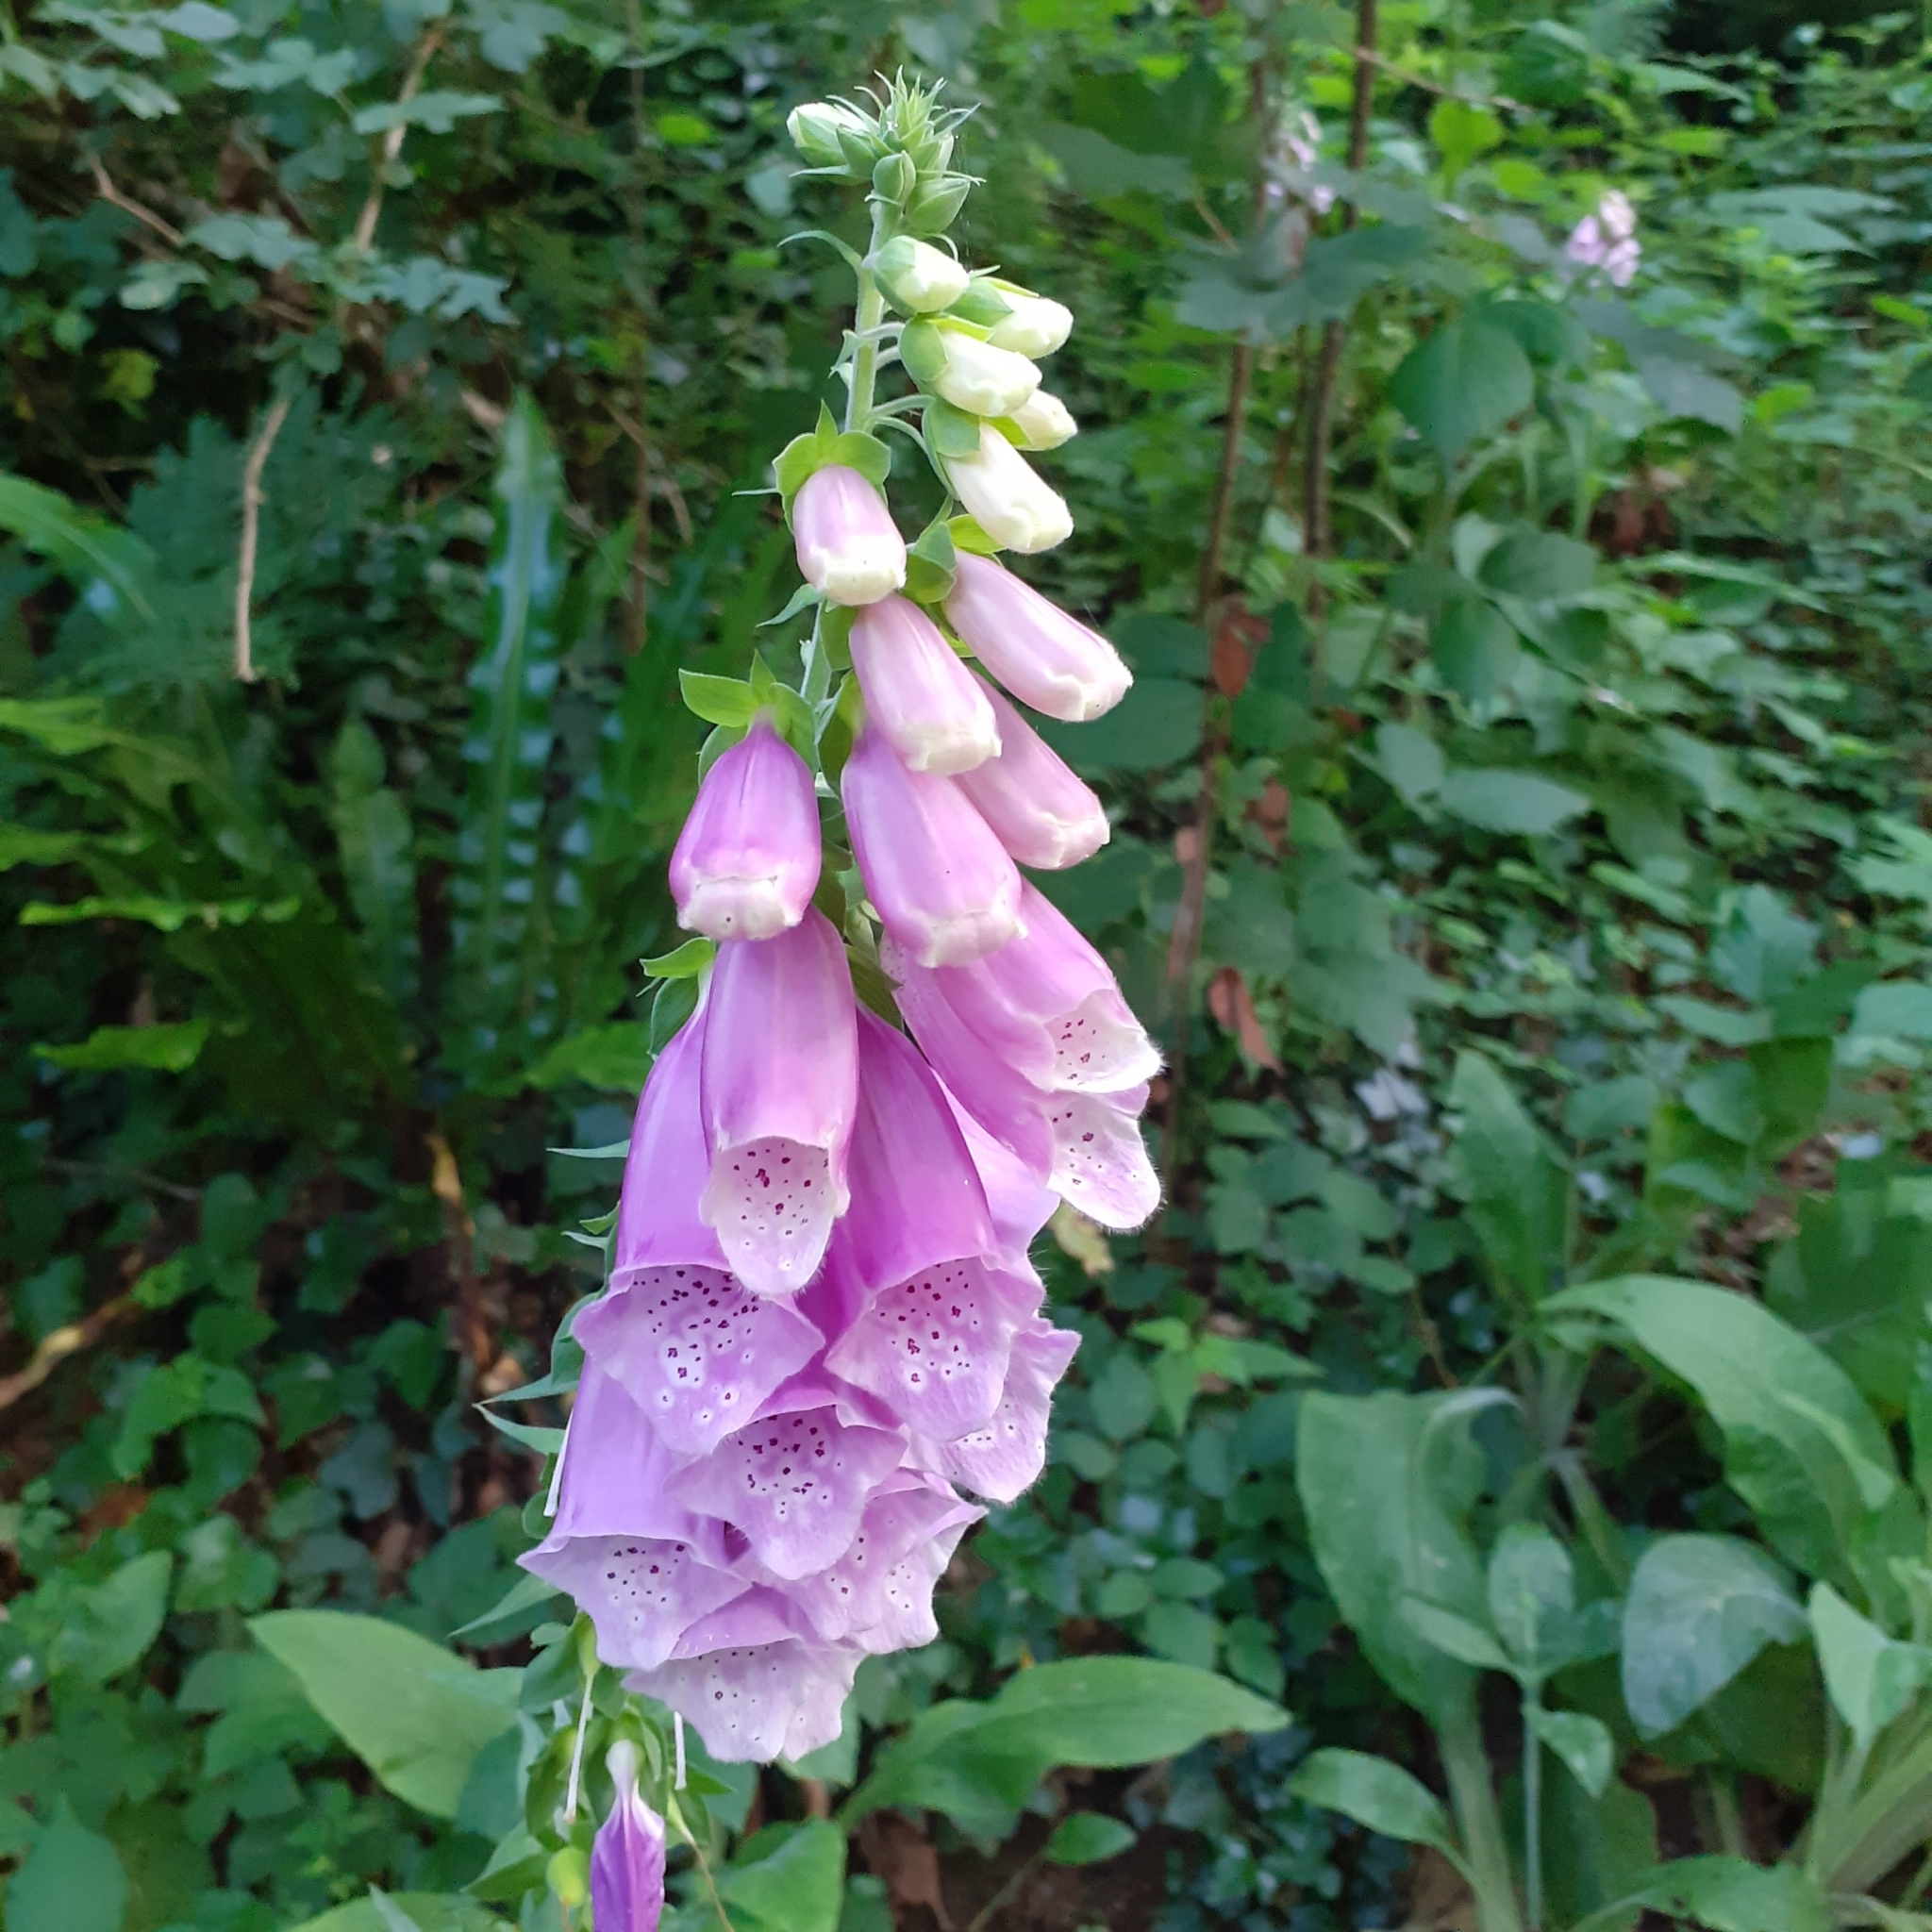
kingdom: Plantae
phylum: Tracheophyta
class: Magnoliopsida
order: Lamiales
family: Plantaginaceae
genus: Digitalis
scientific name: Digitalis purpurea
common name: Foxglove
